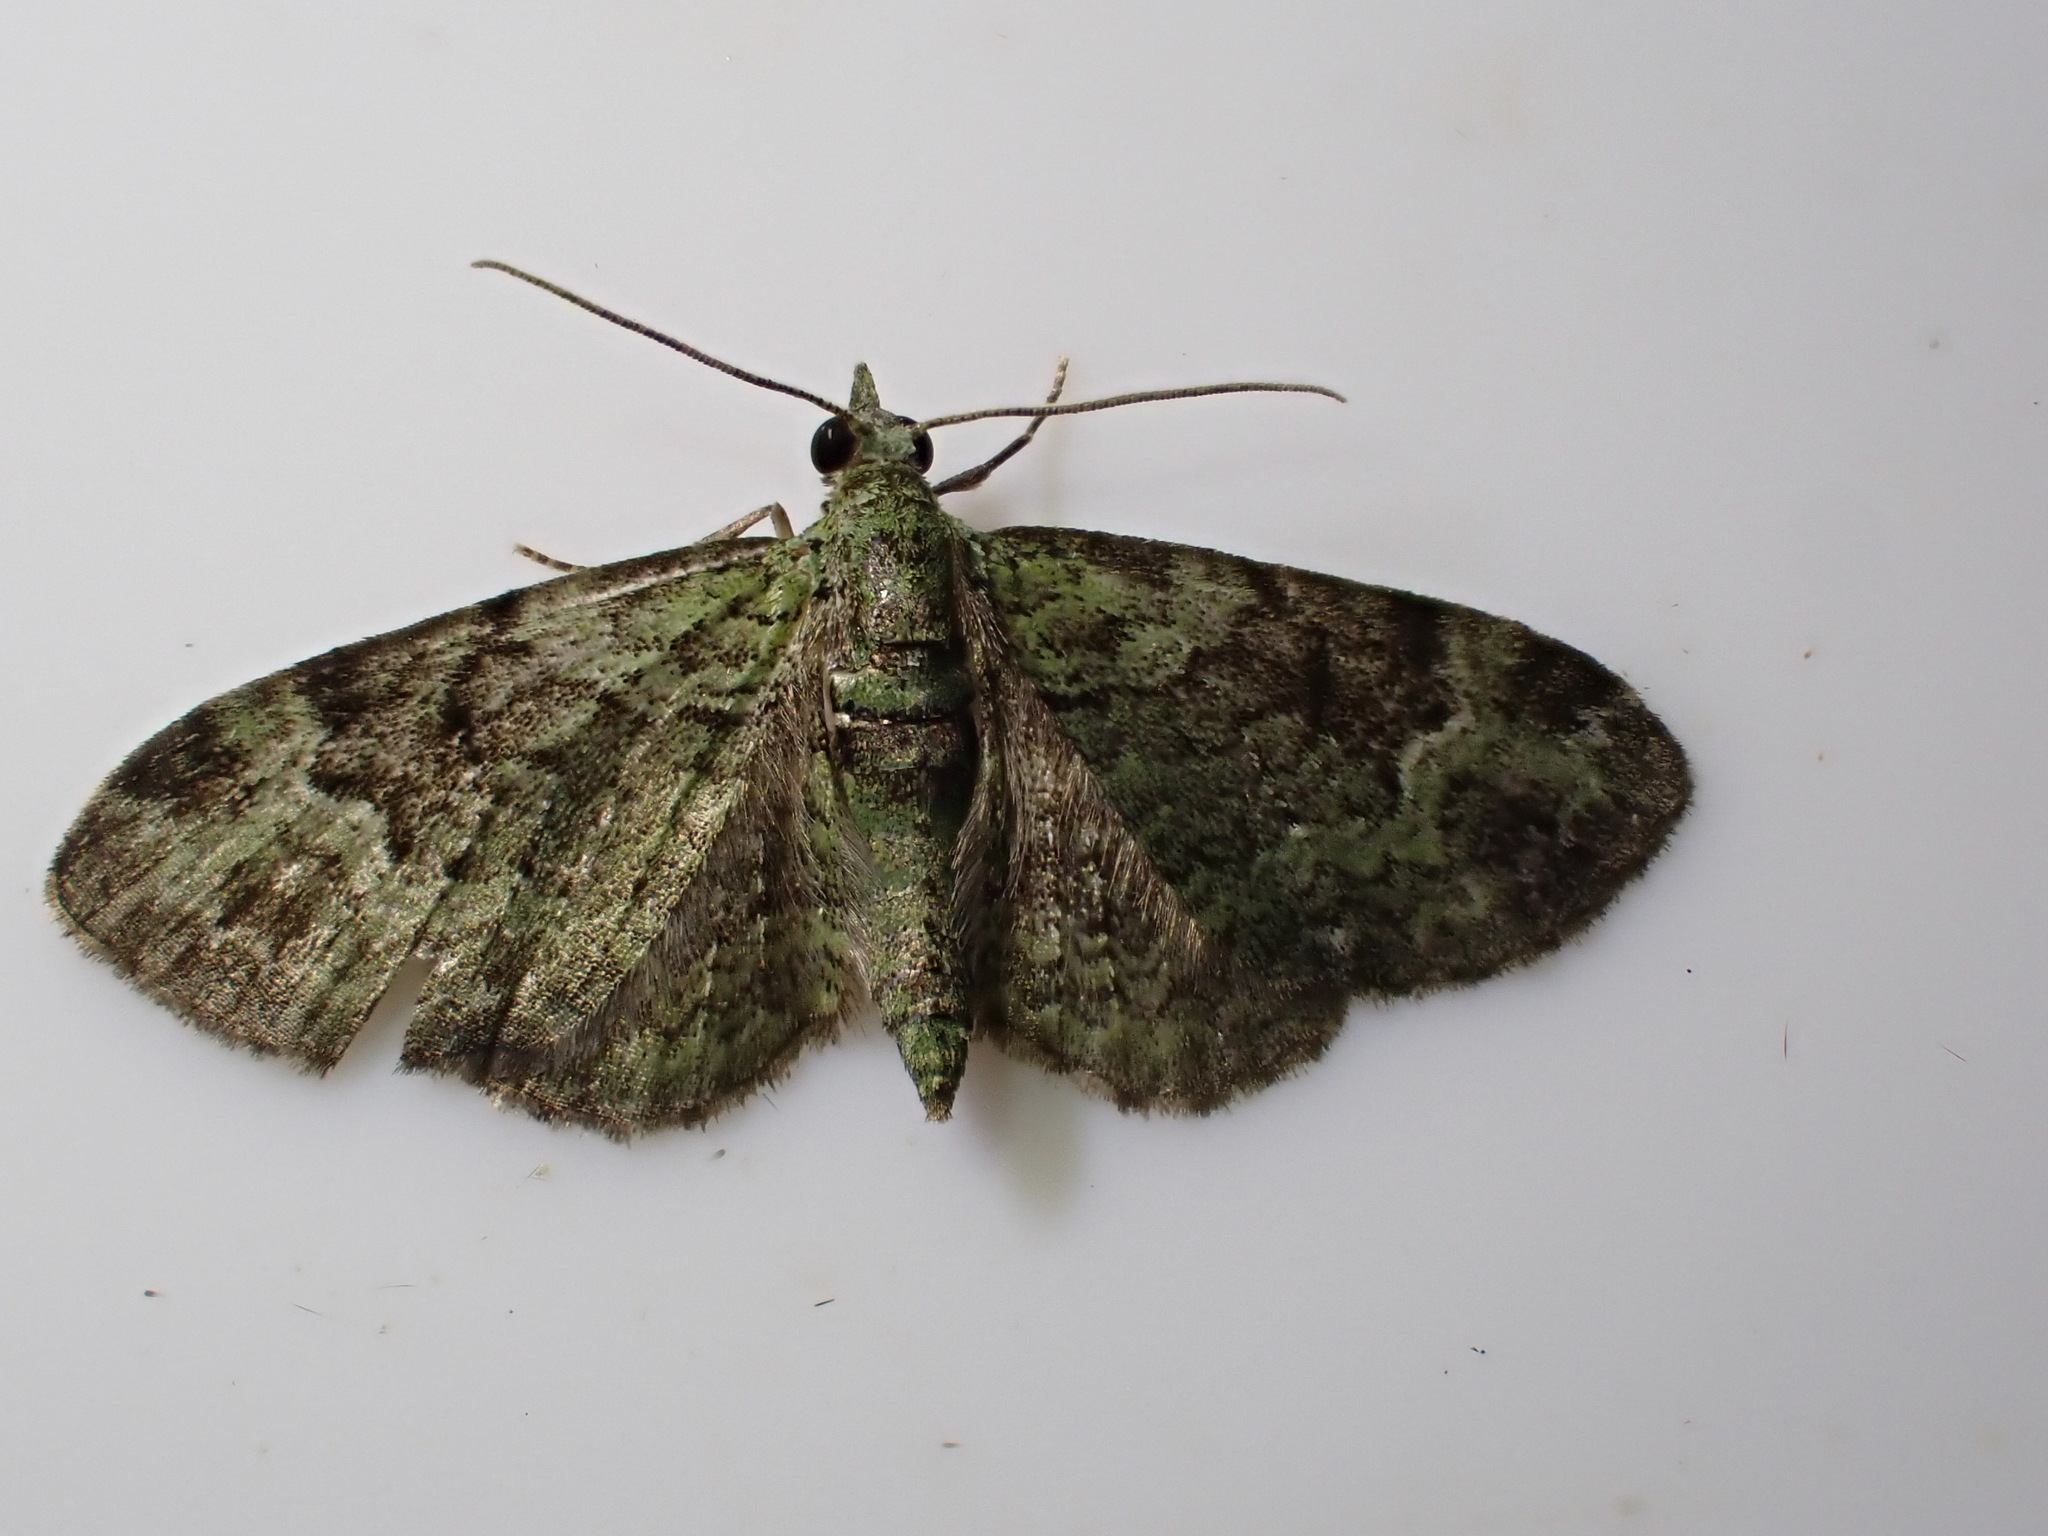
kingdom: Animalia
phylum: Arthropoda
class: Insecta
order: Lepidoptera
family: Geometridae
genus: Pasiphila
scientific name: Pasiphila rectangulata
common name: Green pug
